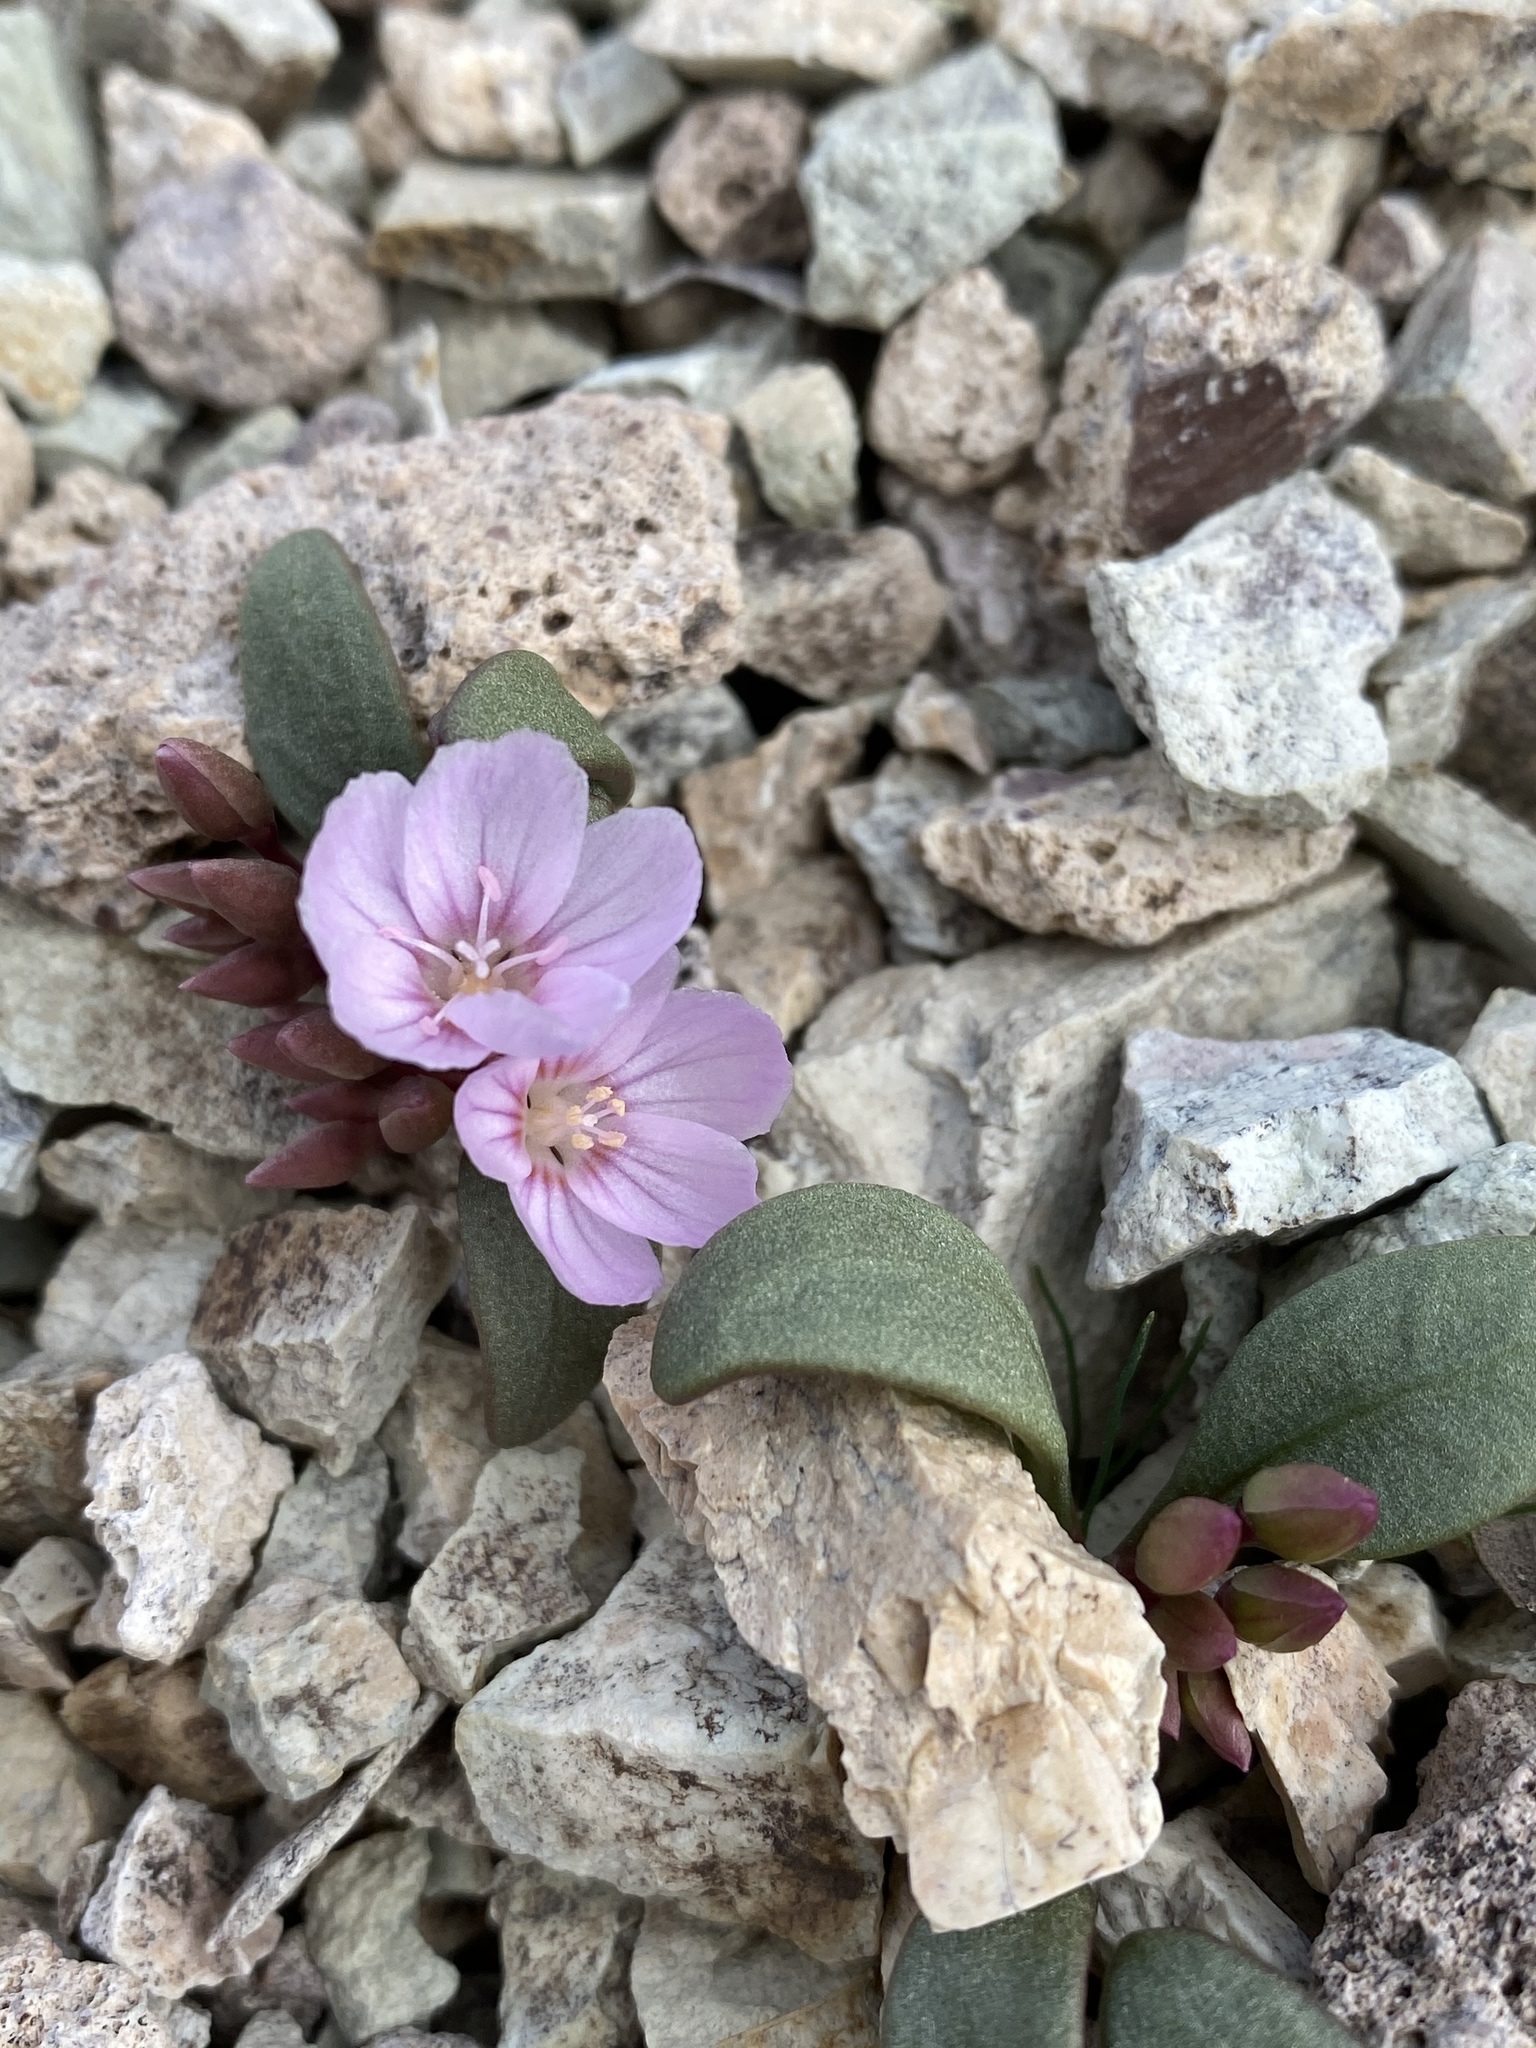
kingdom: Plantae
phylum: Tracheophyta
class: Magnoliopsida
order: Caryophyllales
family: Montiaceae
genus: Claytonia
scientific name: Claytonia peirsonii
